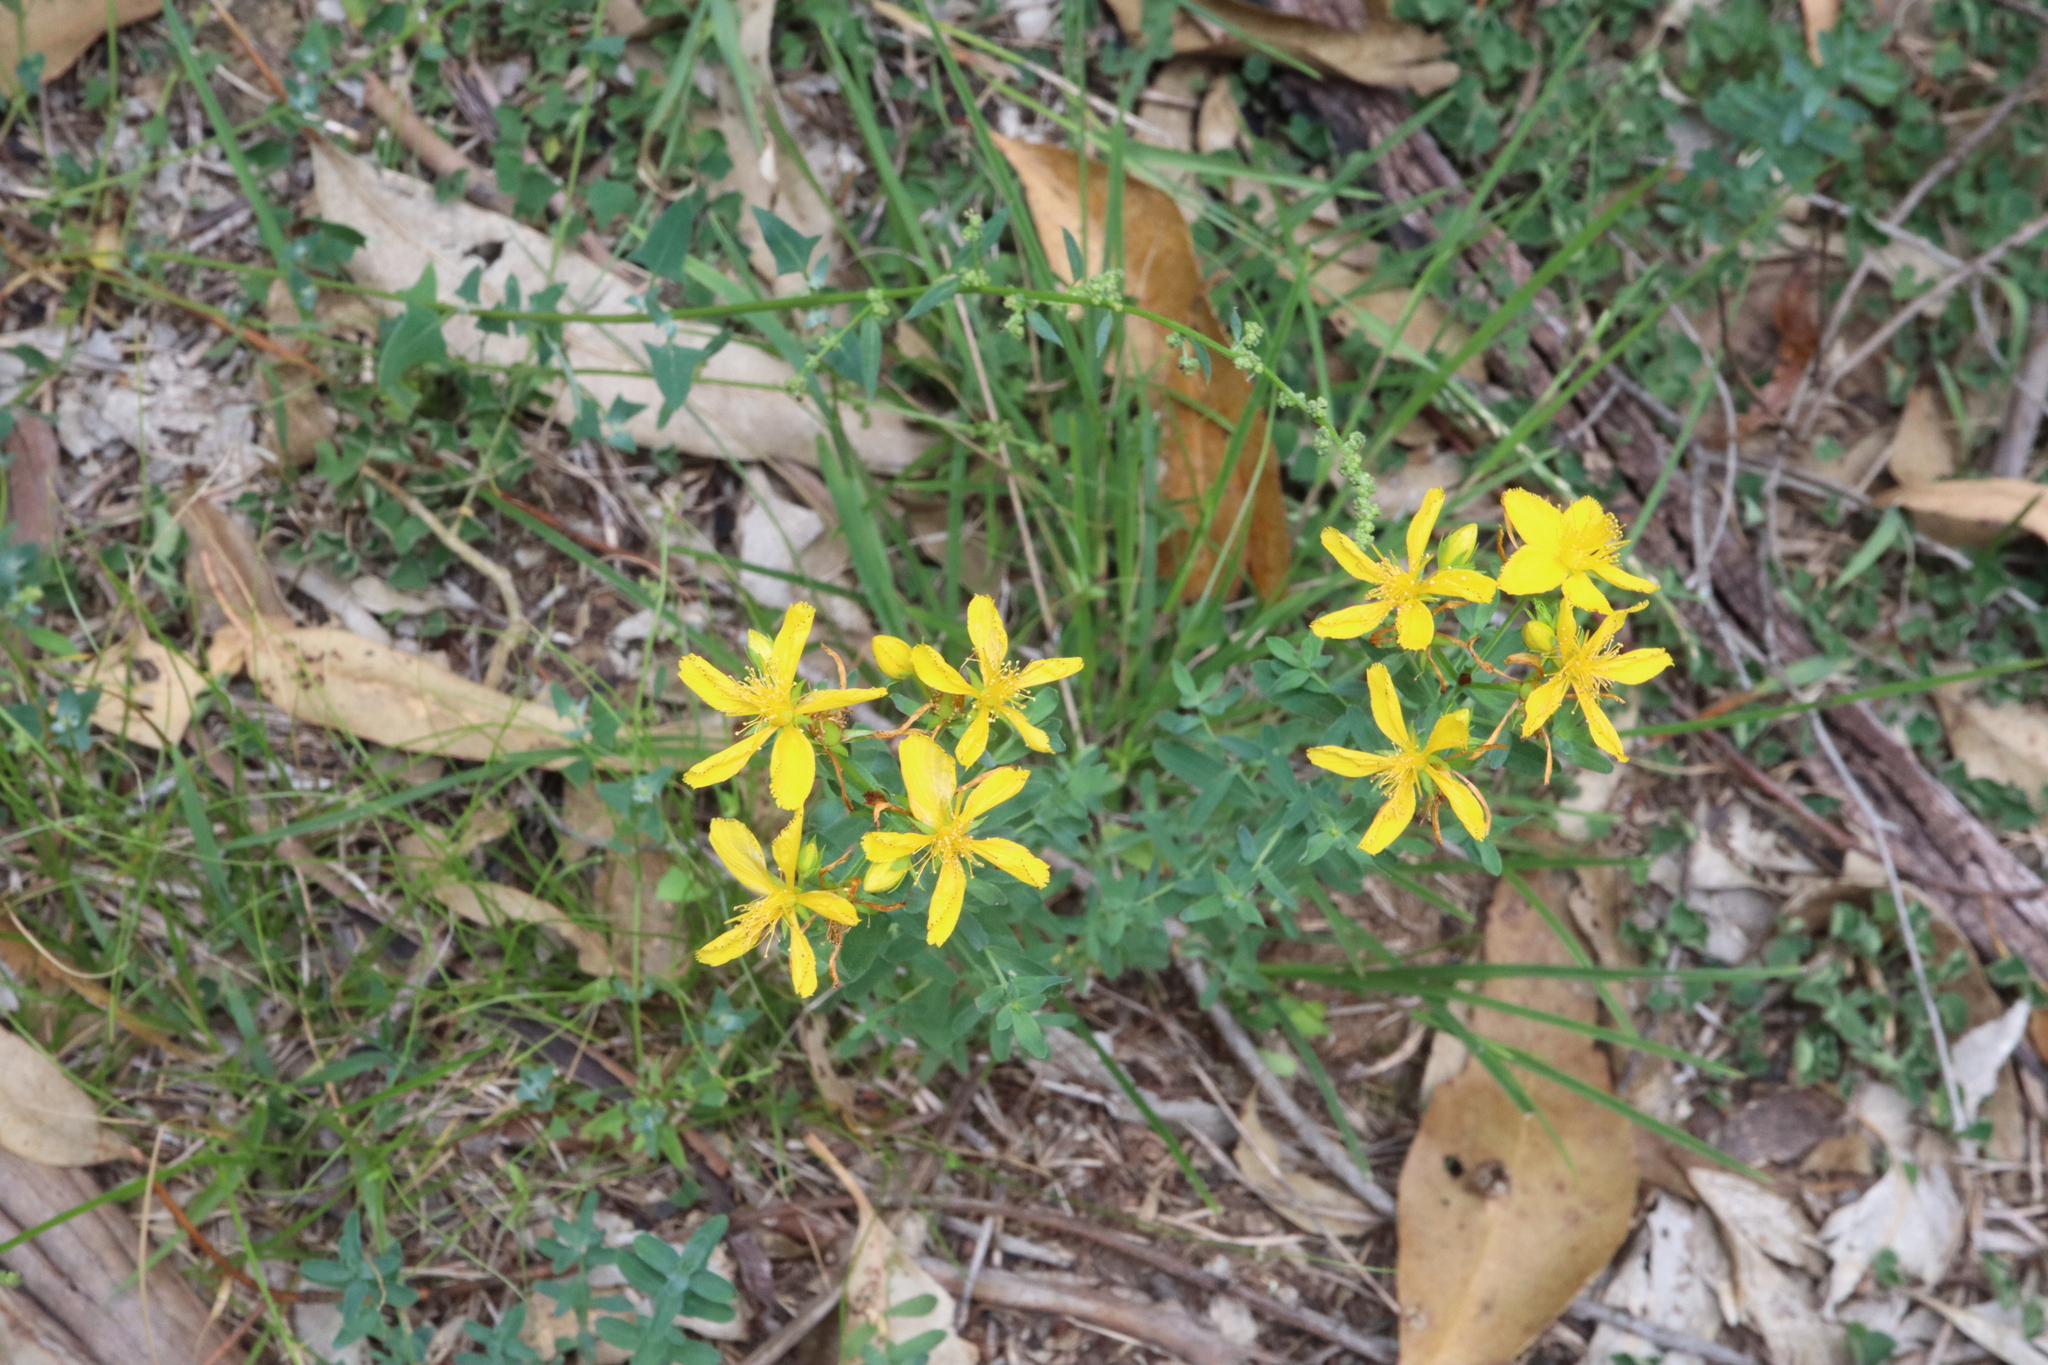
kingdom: Plantae
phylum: Tracheophyta
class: Magnoliopsida
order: Malpighiales
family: Hypericaceae
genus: Hypericum
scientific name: Hypericum perforatum
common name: Common st. johnswort
